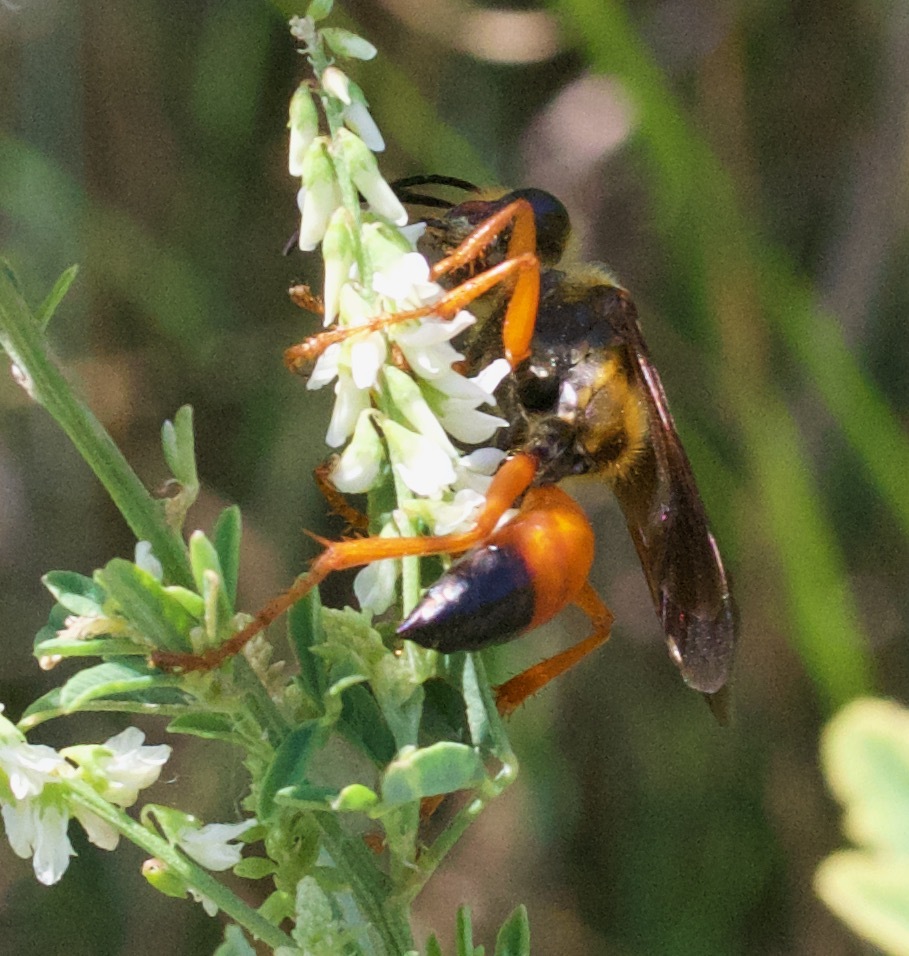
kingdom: Animalia
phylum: Arthropoda
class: Insecta
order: Hymenoptera
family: Sphecidae
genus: Sphex
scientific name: Sphex ichneumoneus
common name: Great golden digger wasp
